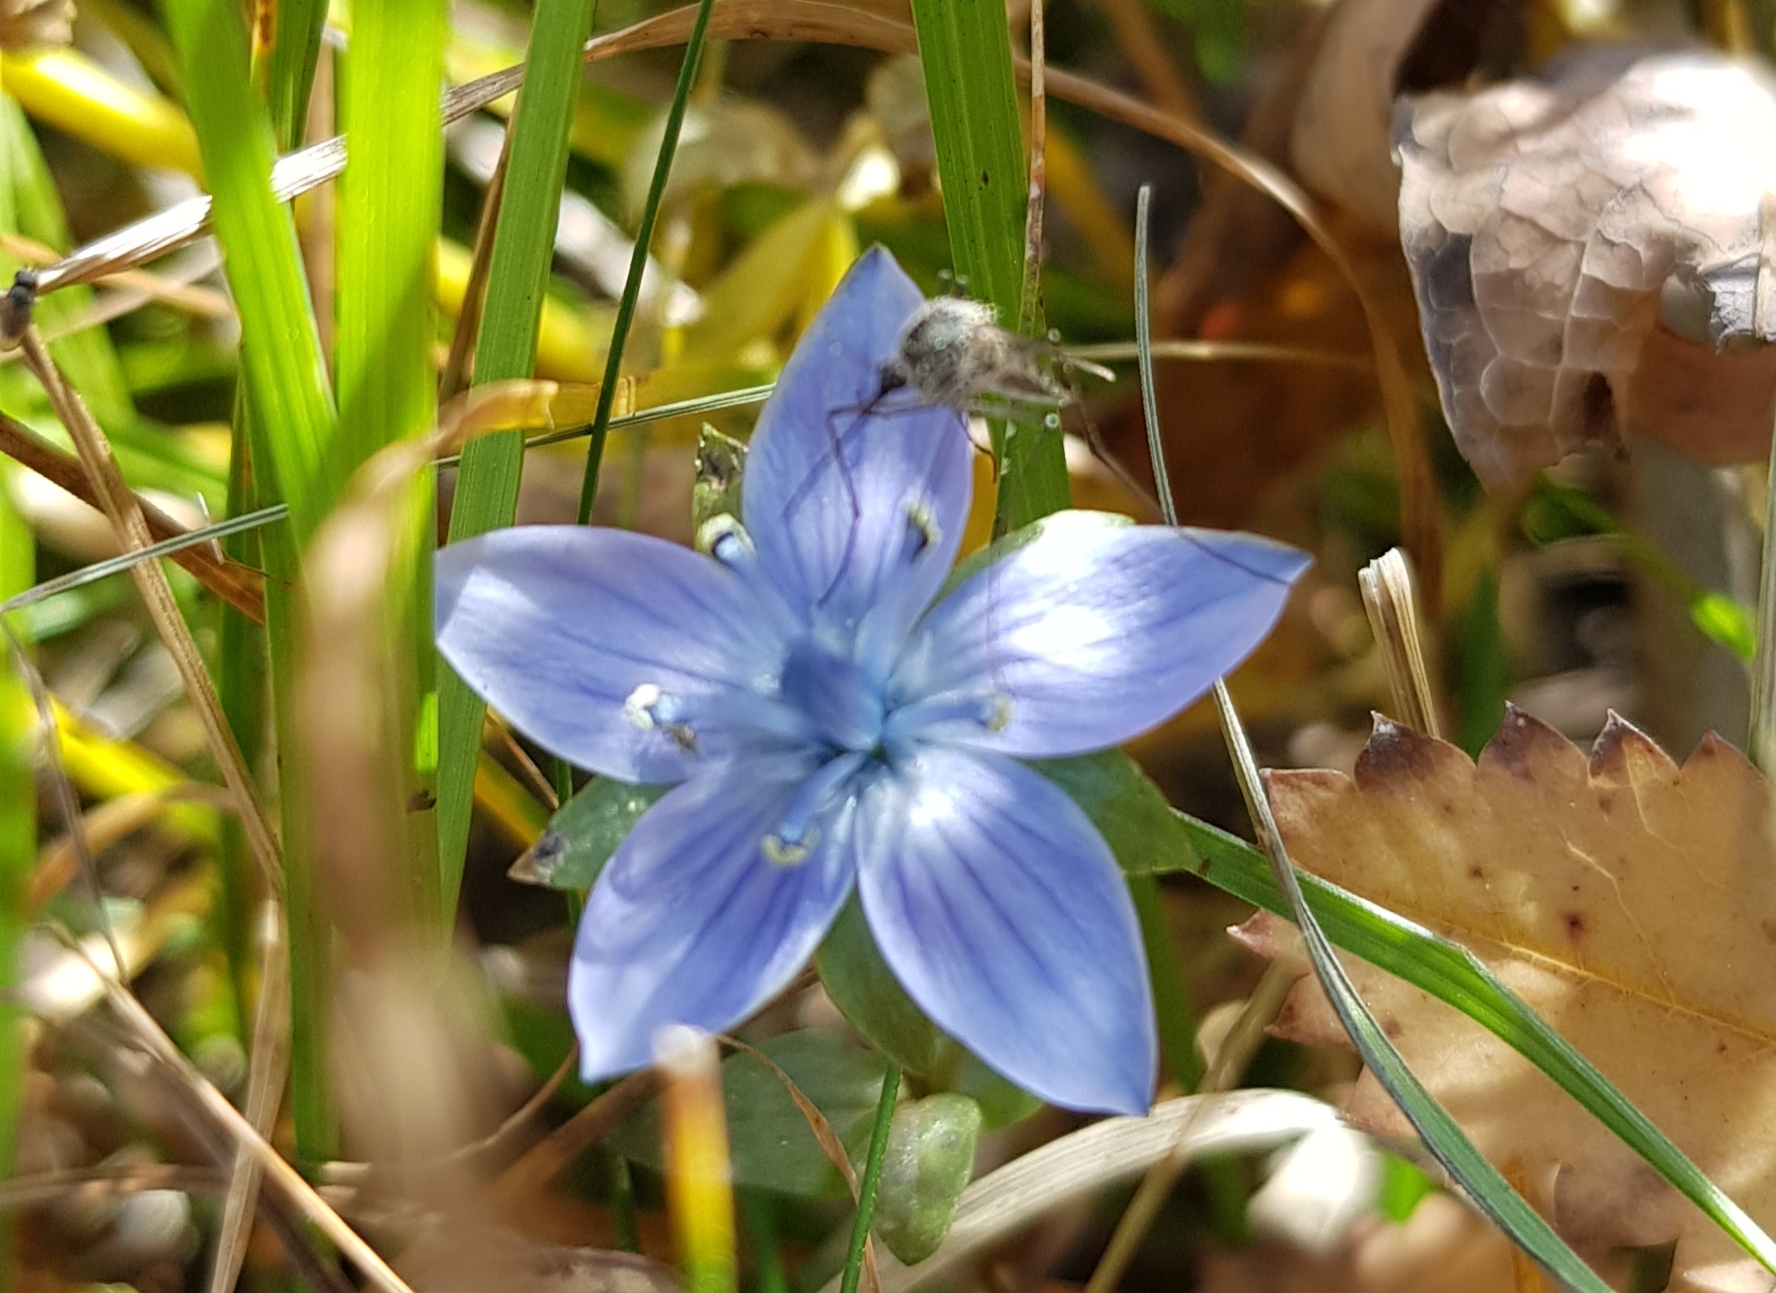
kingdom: Plantae
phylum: Tracheophyta
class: Magnoliopsida
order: Gentianales
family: Gentianaceae
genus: Lomatogonium
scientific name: Lomatogonium carinthiacum
